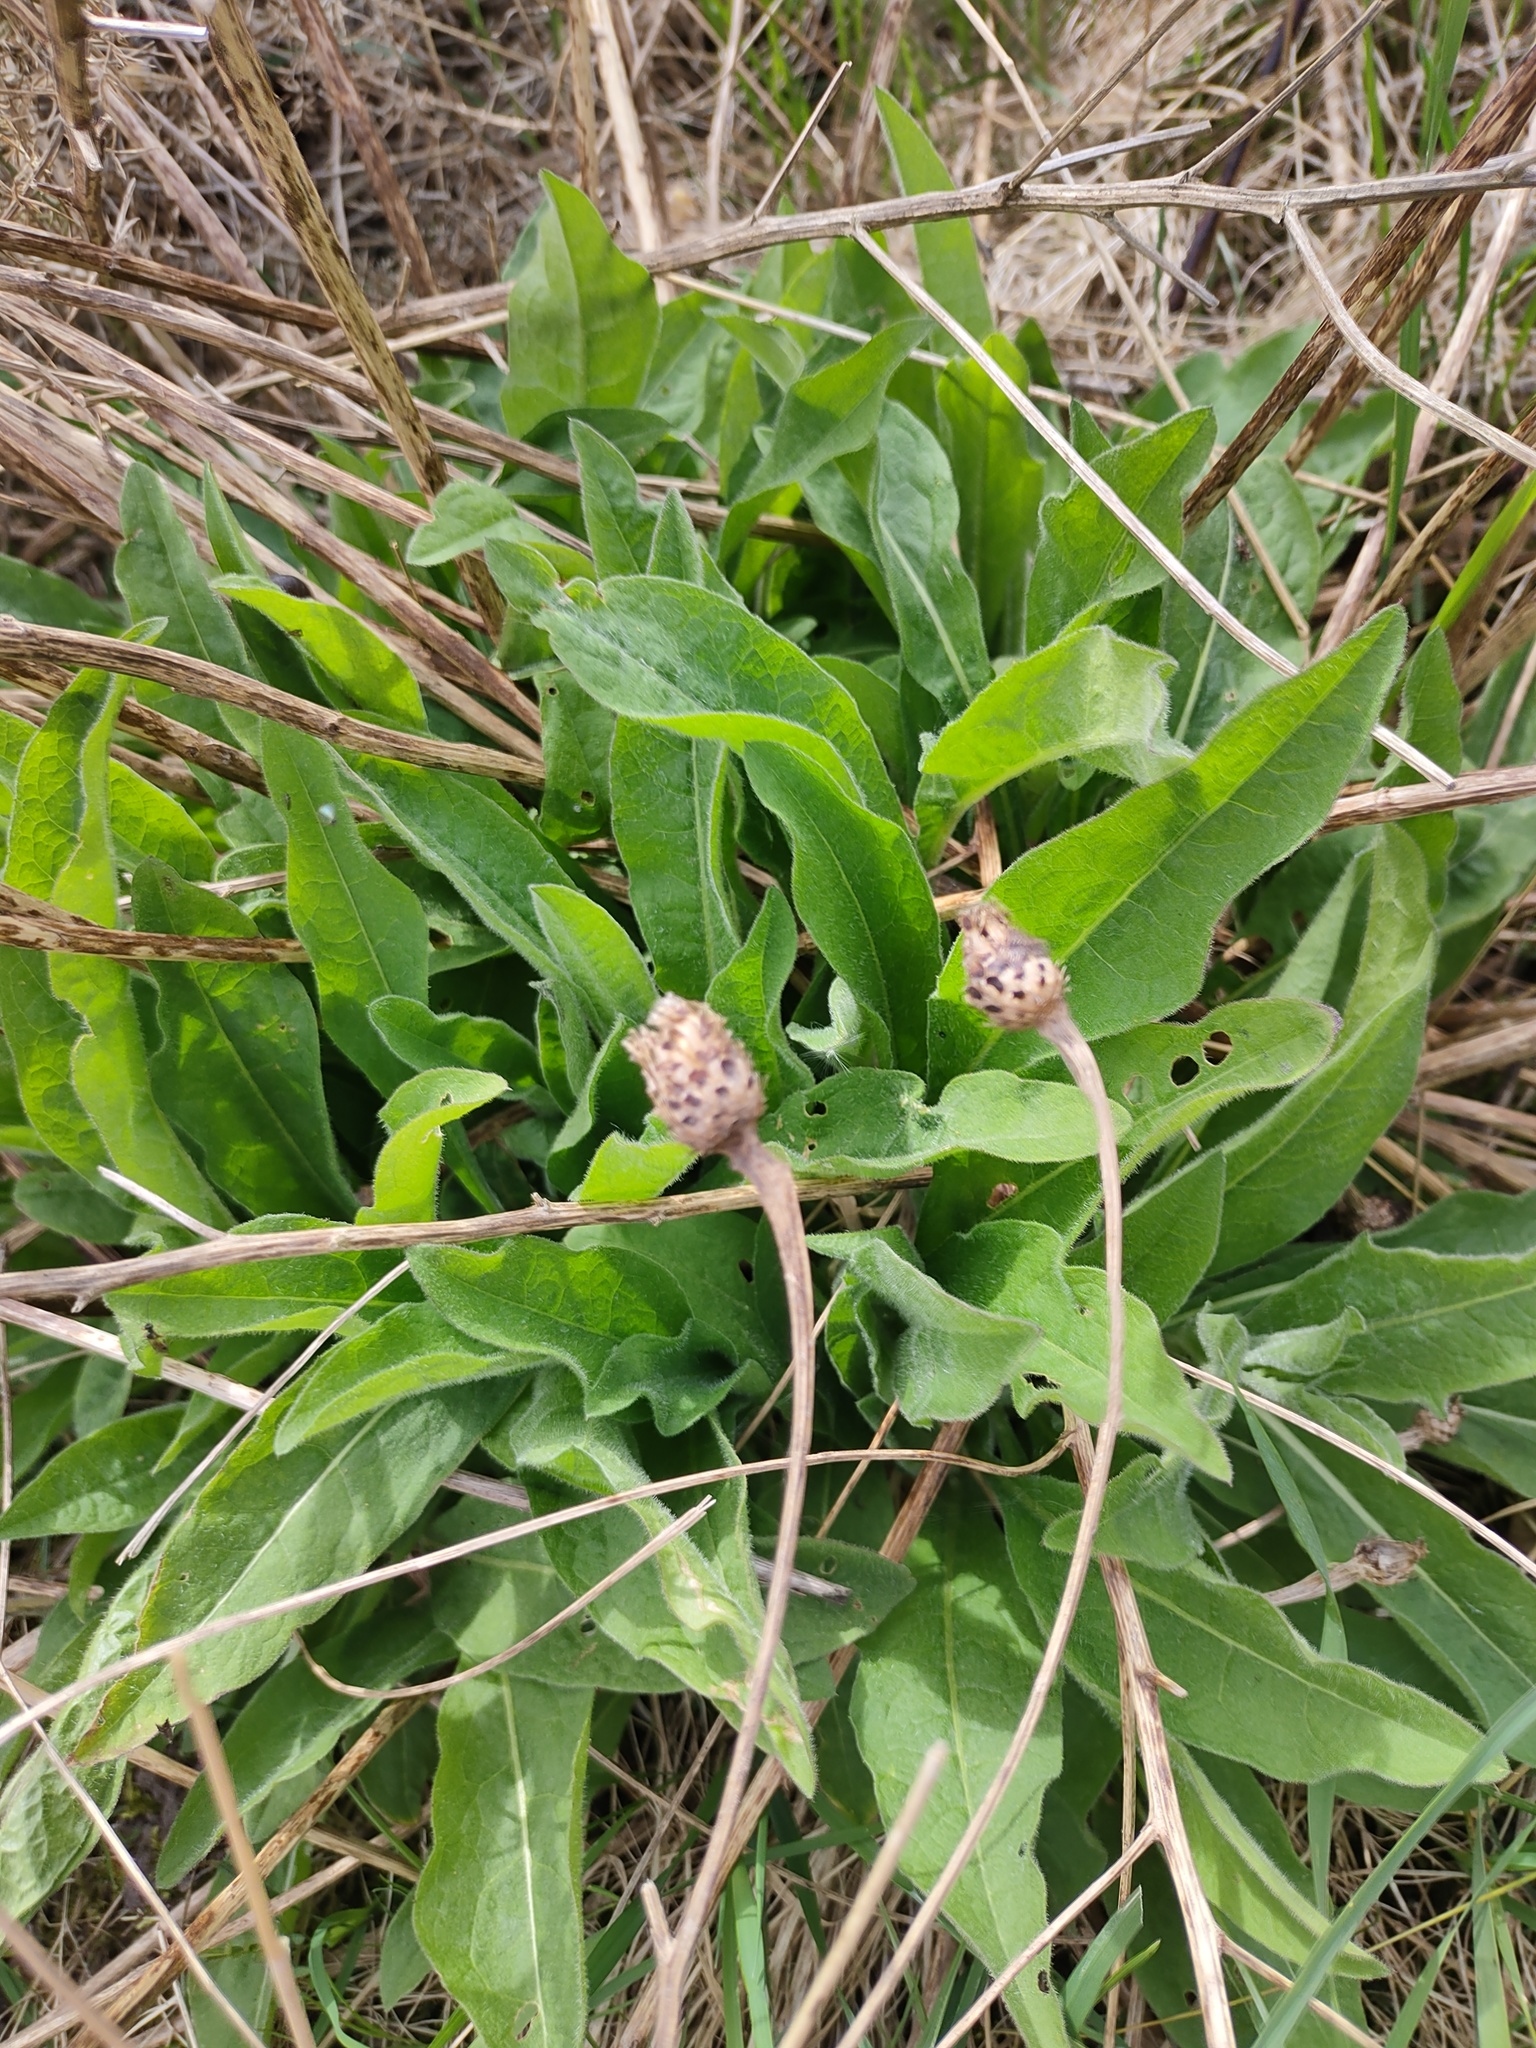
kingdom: Plantae
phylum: Tracheophyta
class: Magnoliopsida
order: Asterales
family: Asteraceae
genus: Centaurea
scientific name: Centaurea nigra
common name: Lesser knapweed
